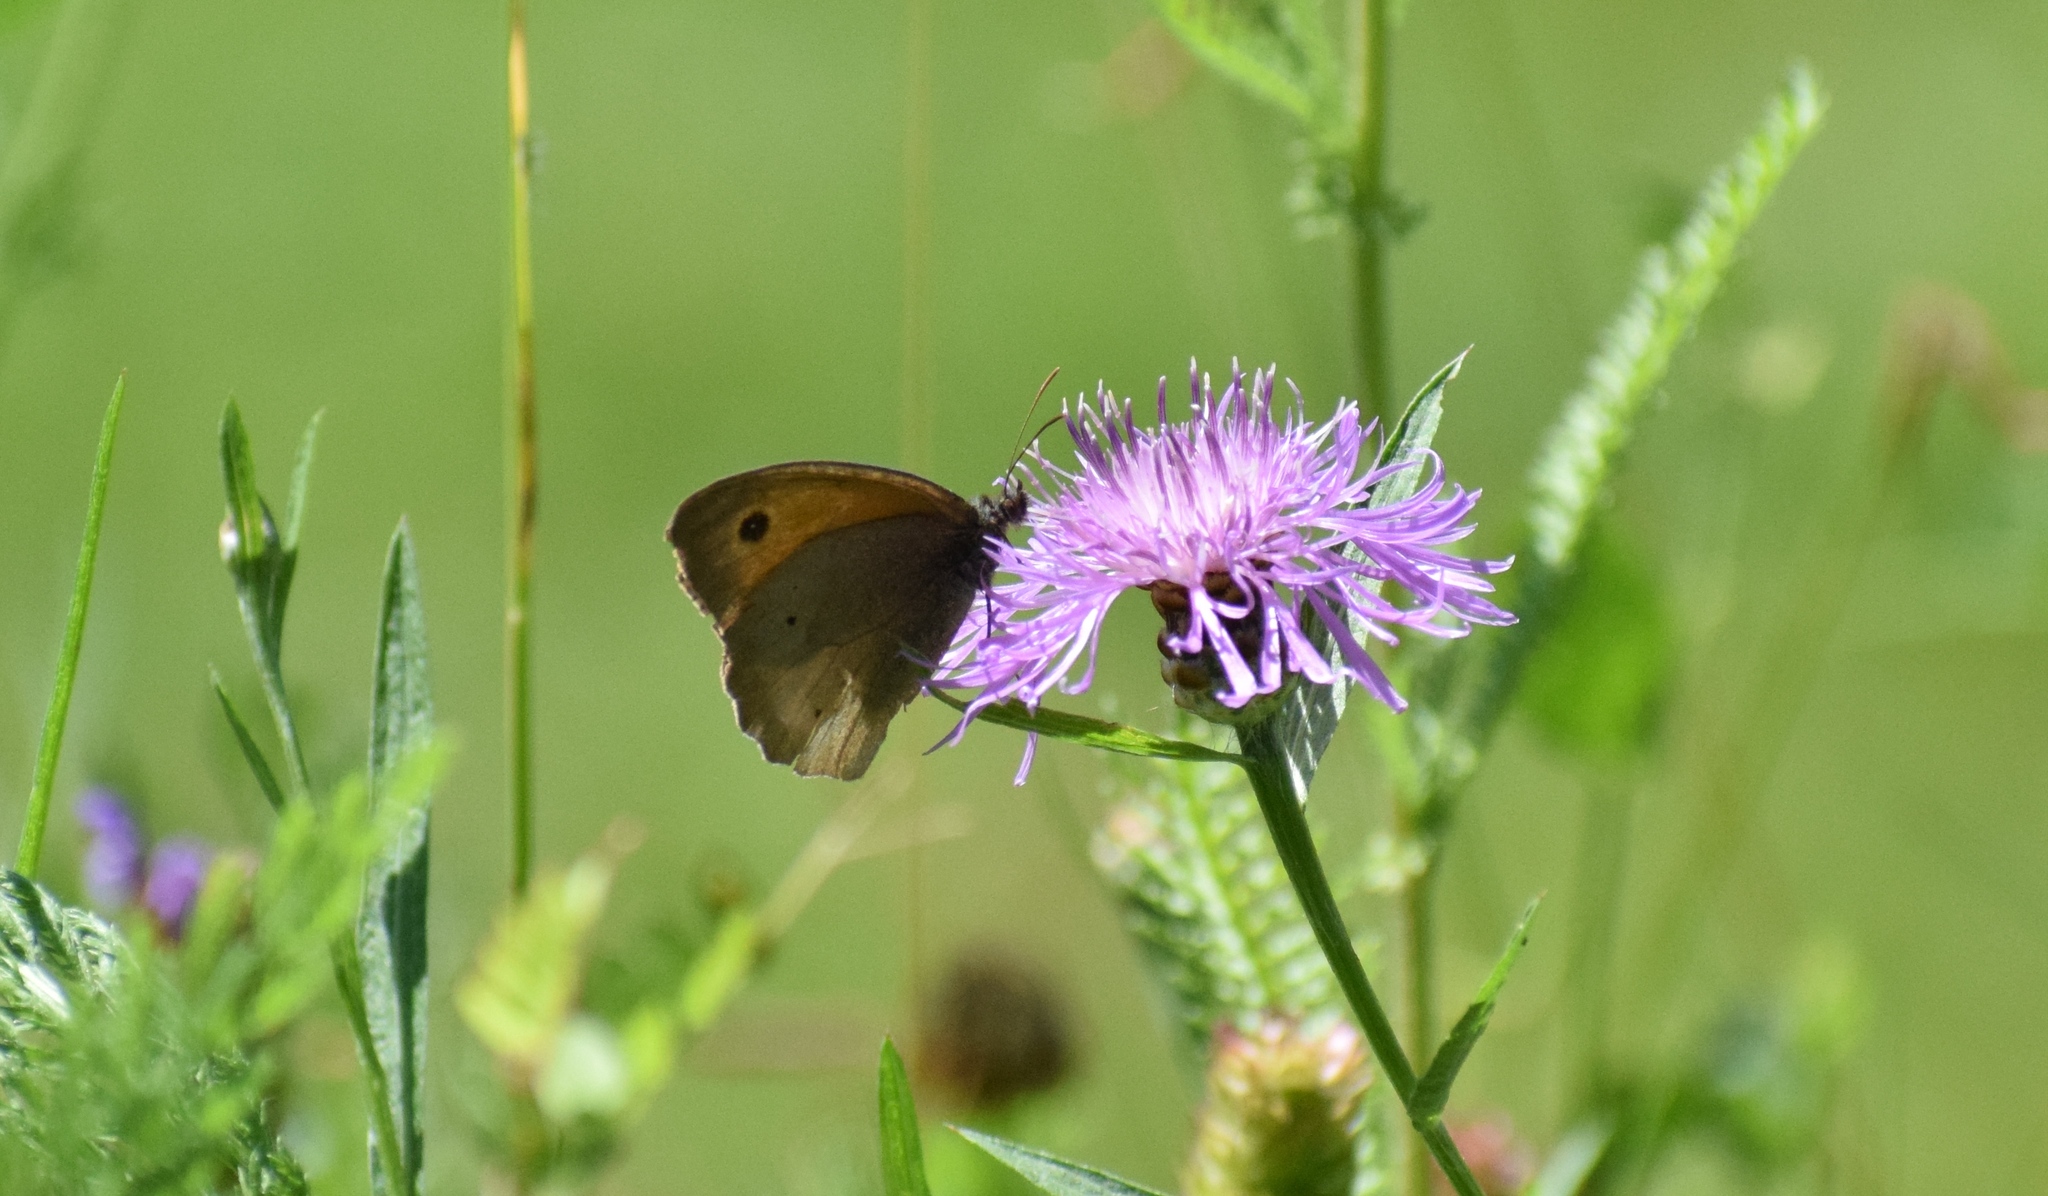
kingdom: Animalia
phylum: Arthropoda
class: Insecta
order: Lepidoptera
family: Nymphalidae
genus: Maniola
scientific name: Maniola jurtina
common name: Meadow brown
